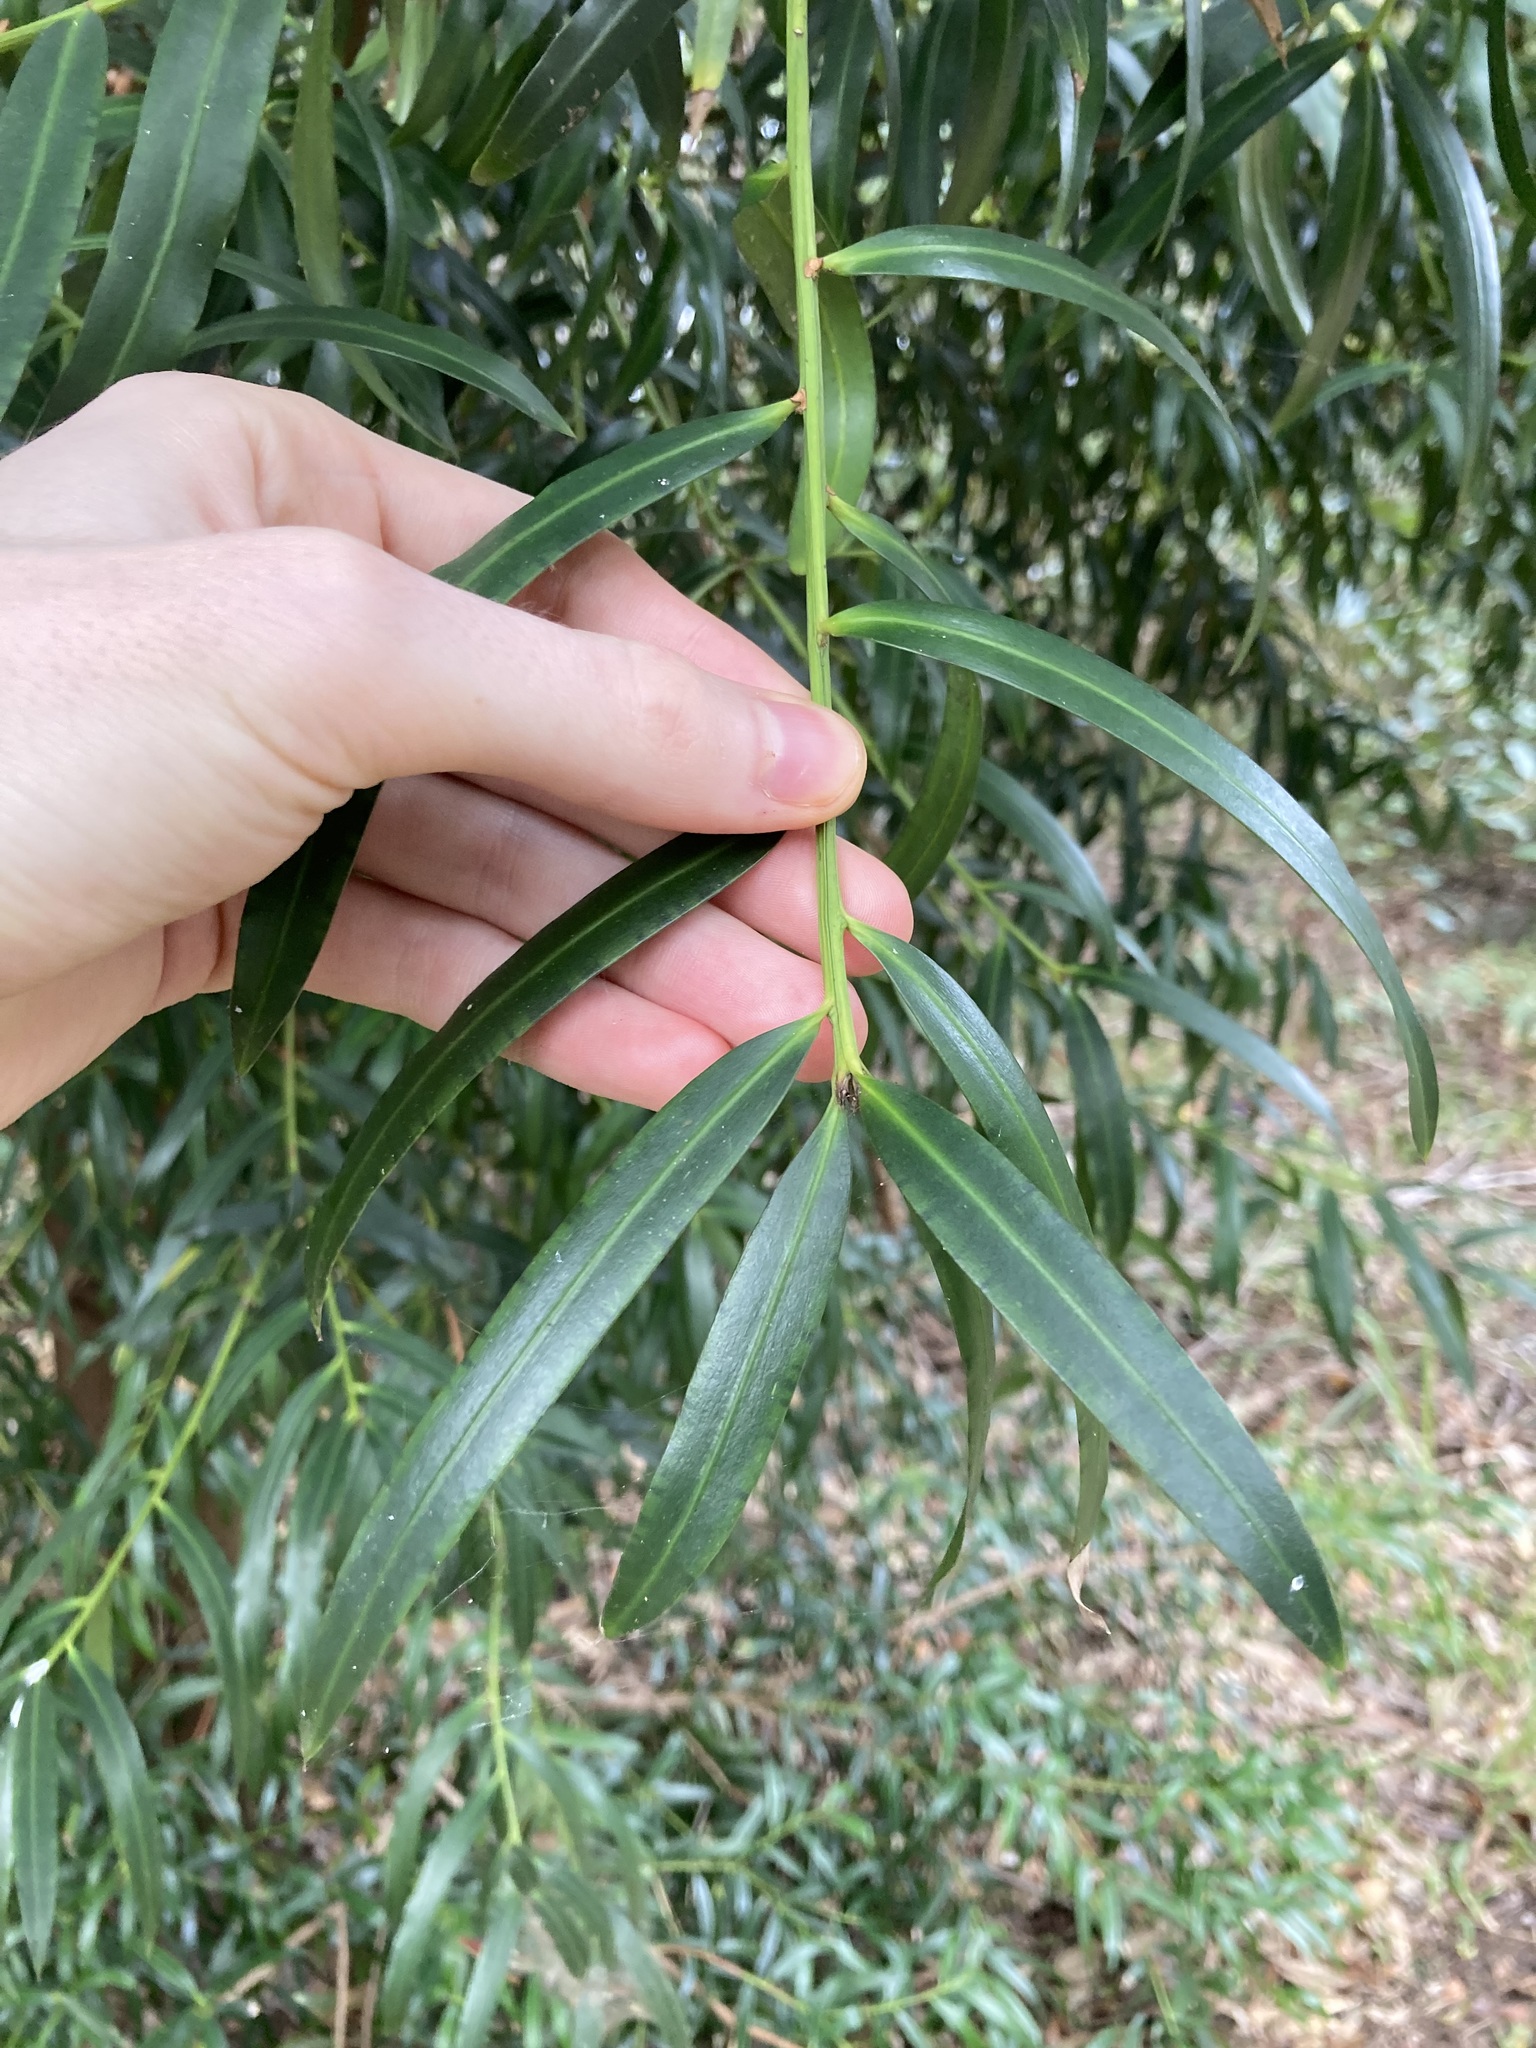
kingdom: Plantae
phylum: Tracheophyta
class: Pinopsida
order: Pinales
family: Podocarpaceae
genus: Podocarpus
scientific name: Podocarpus elatus
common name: Plum pine
